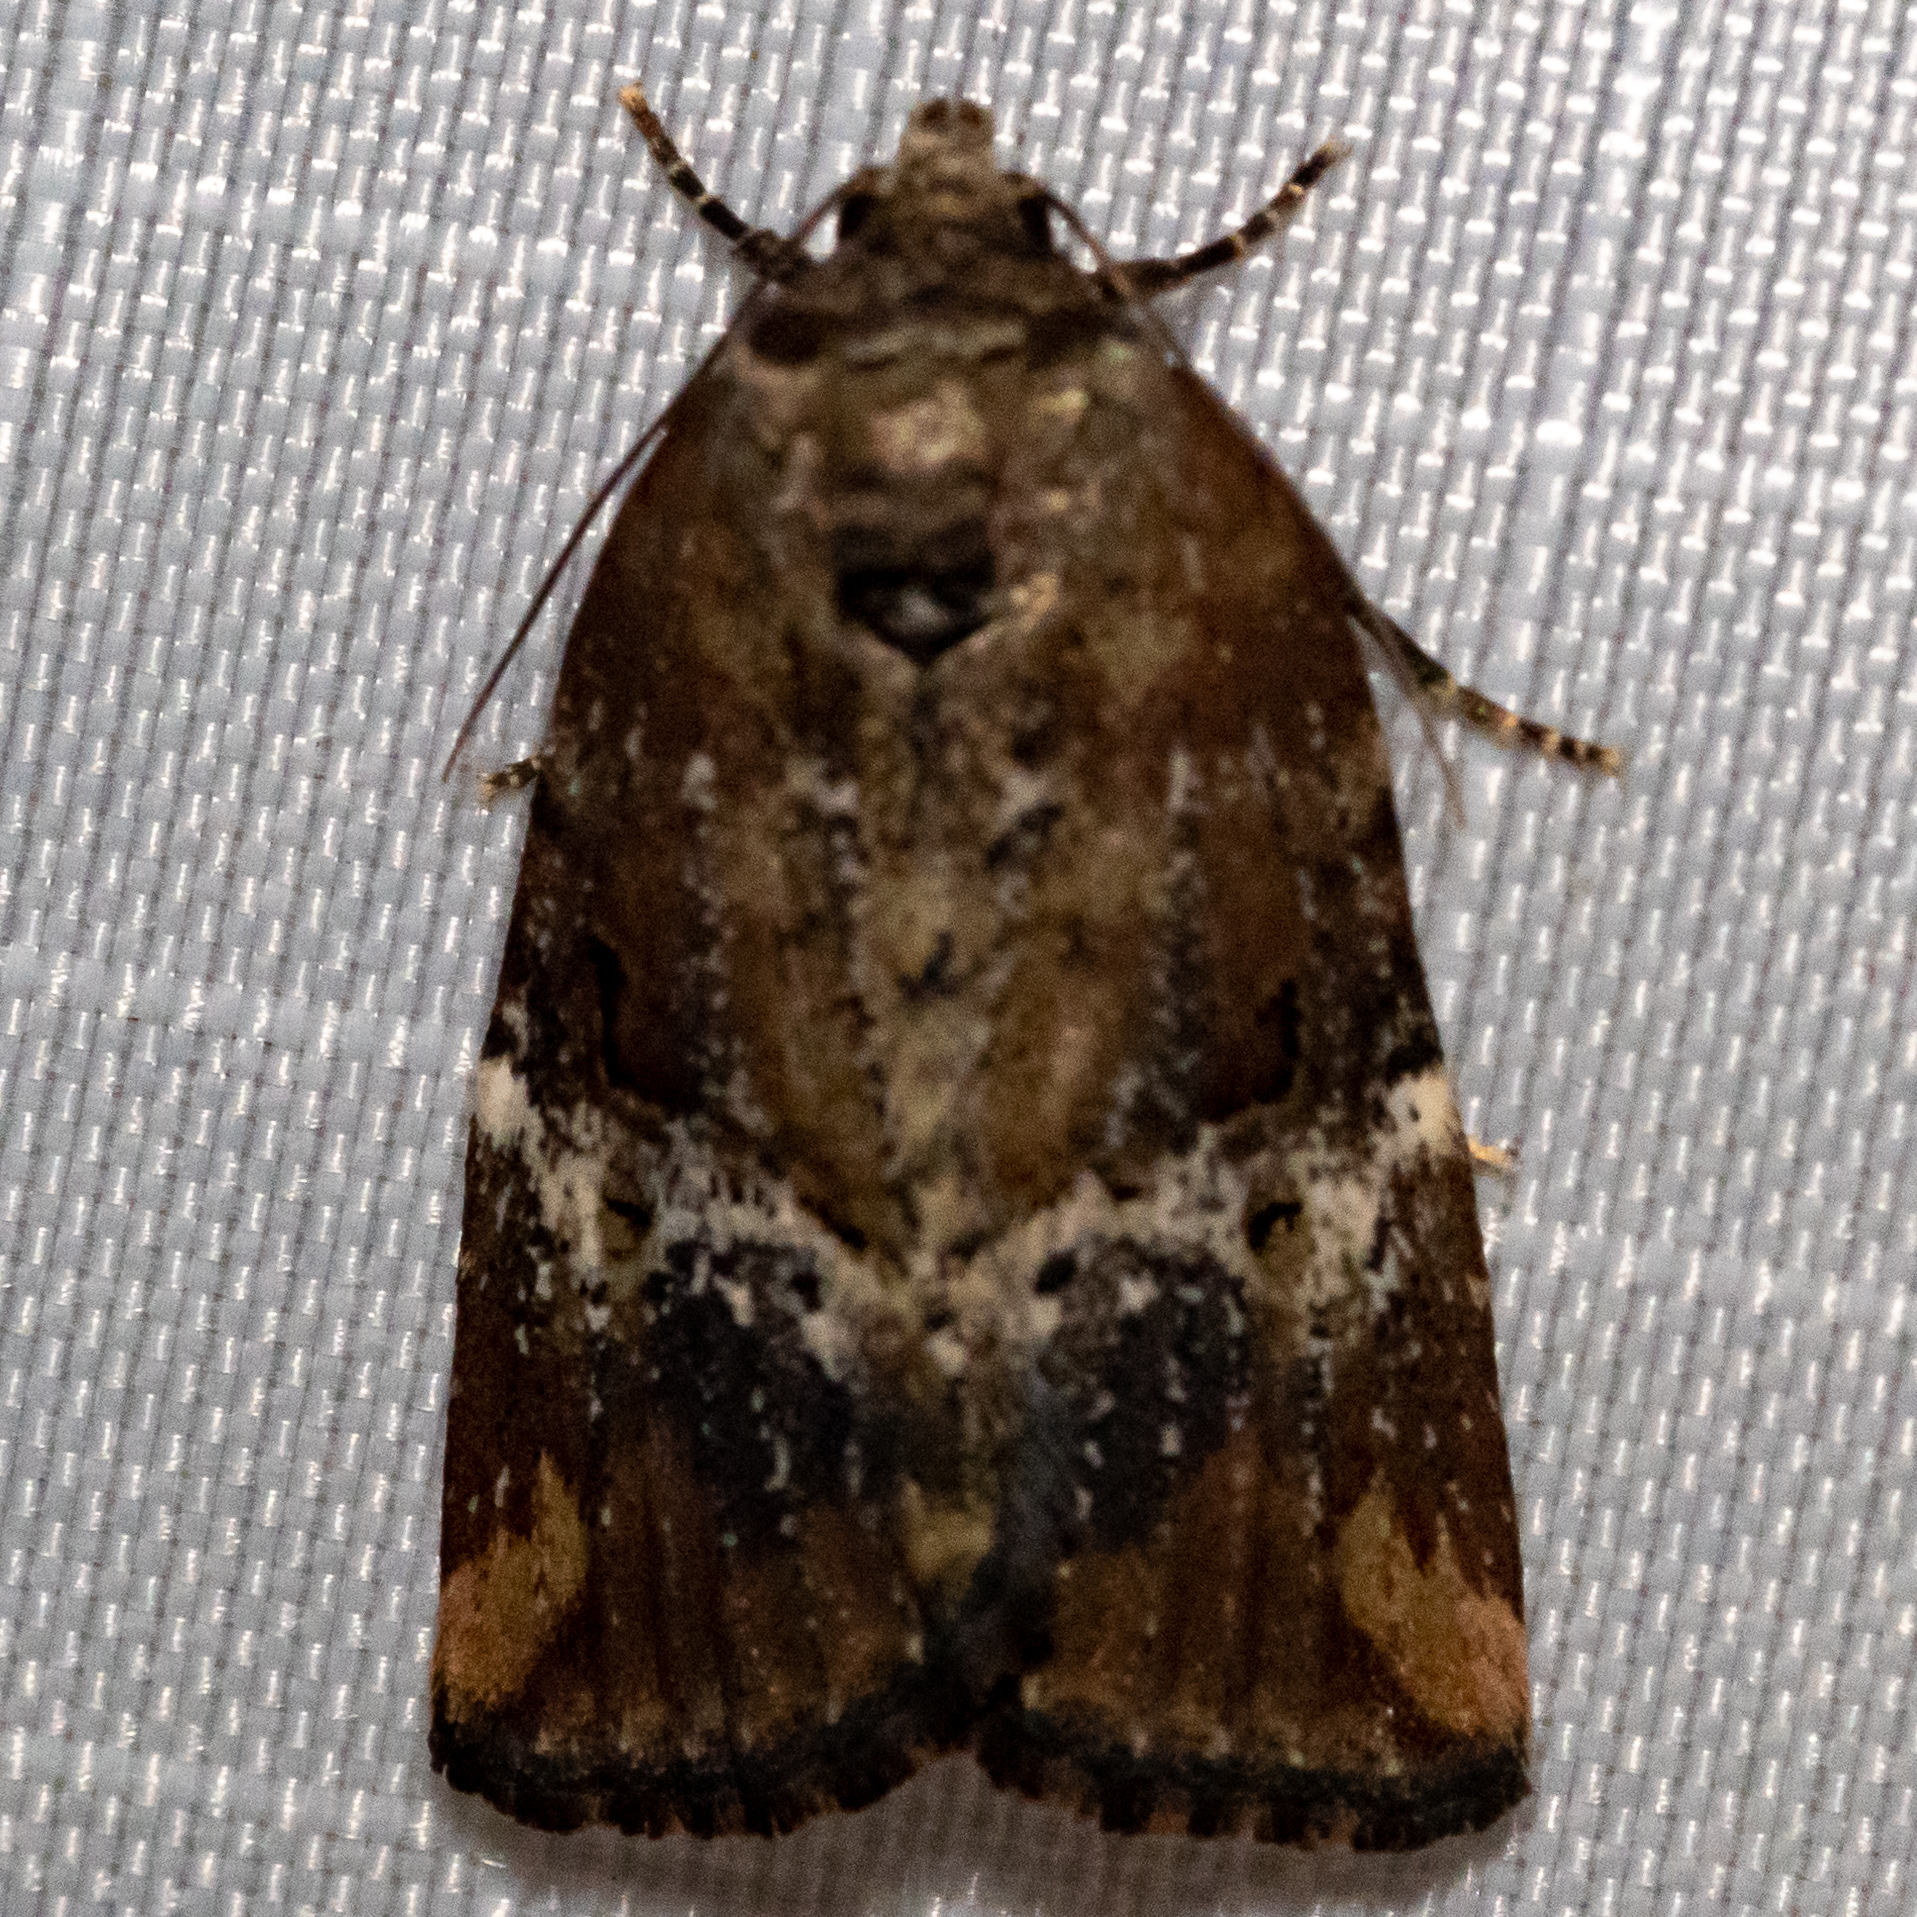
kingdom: Animalia
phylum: Arthropoda
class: Insecta
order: Lepidoptera
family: Noctuidae
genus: Elaphria
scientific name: Elaphria versicolor
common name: Fir harlequin
